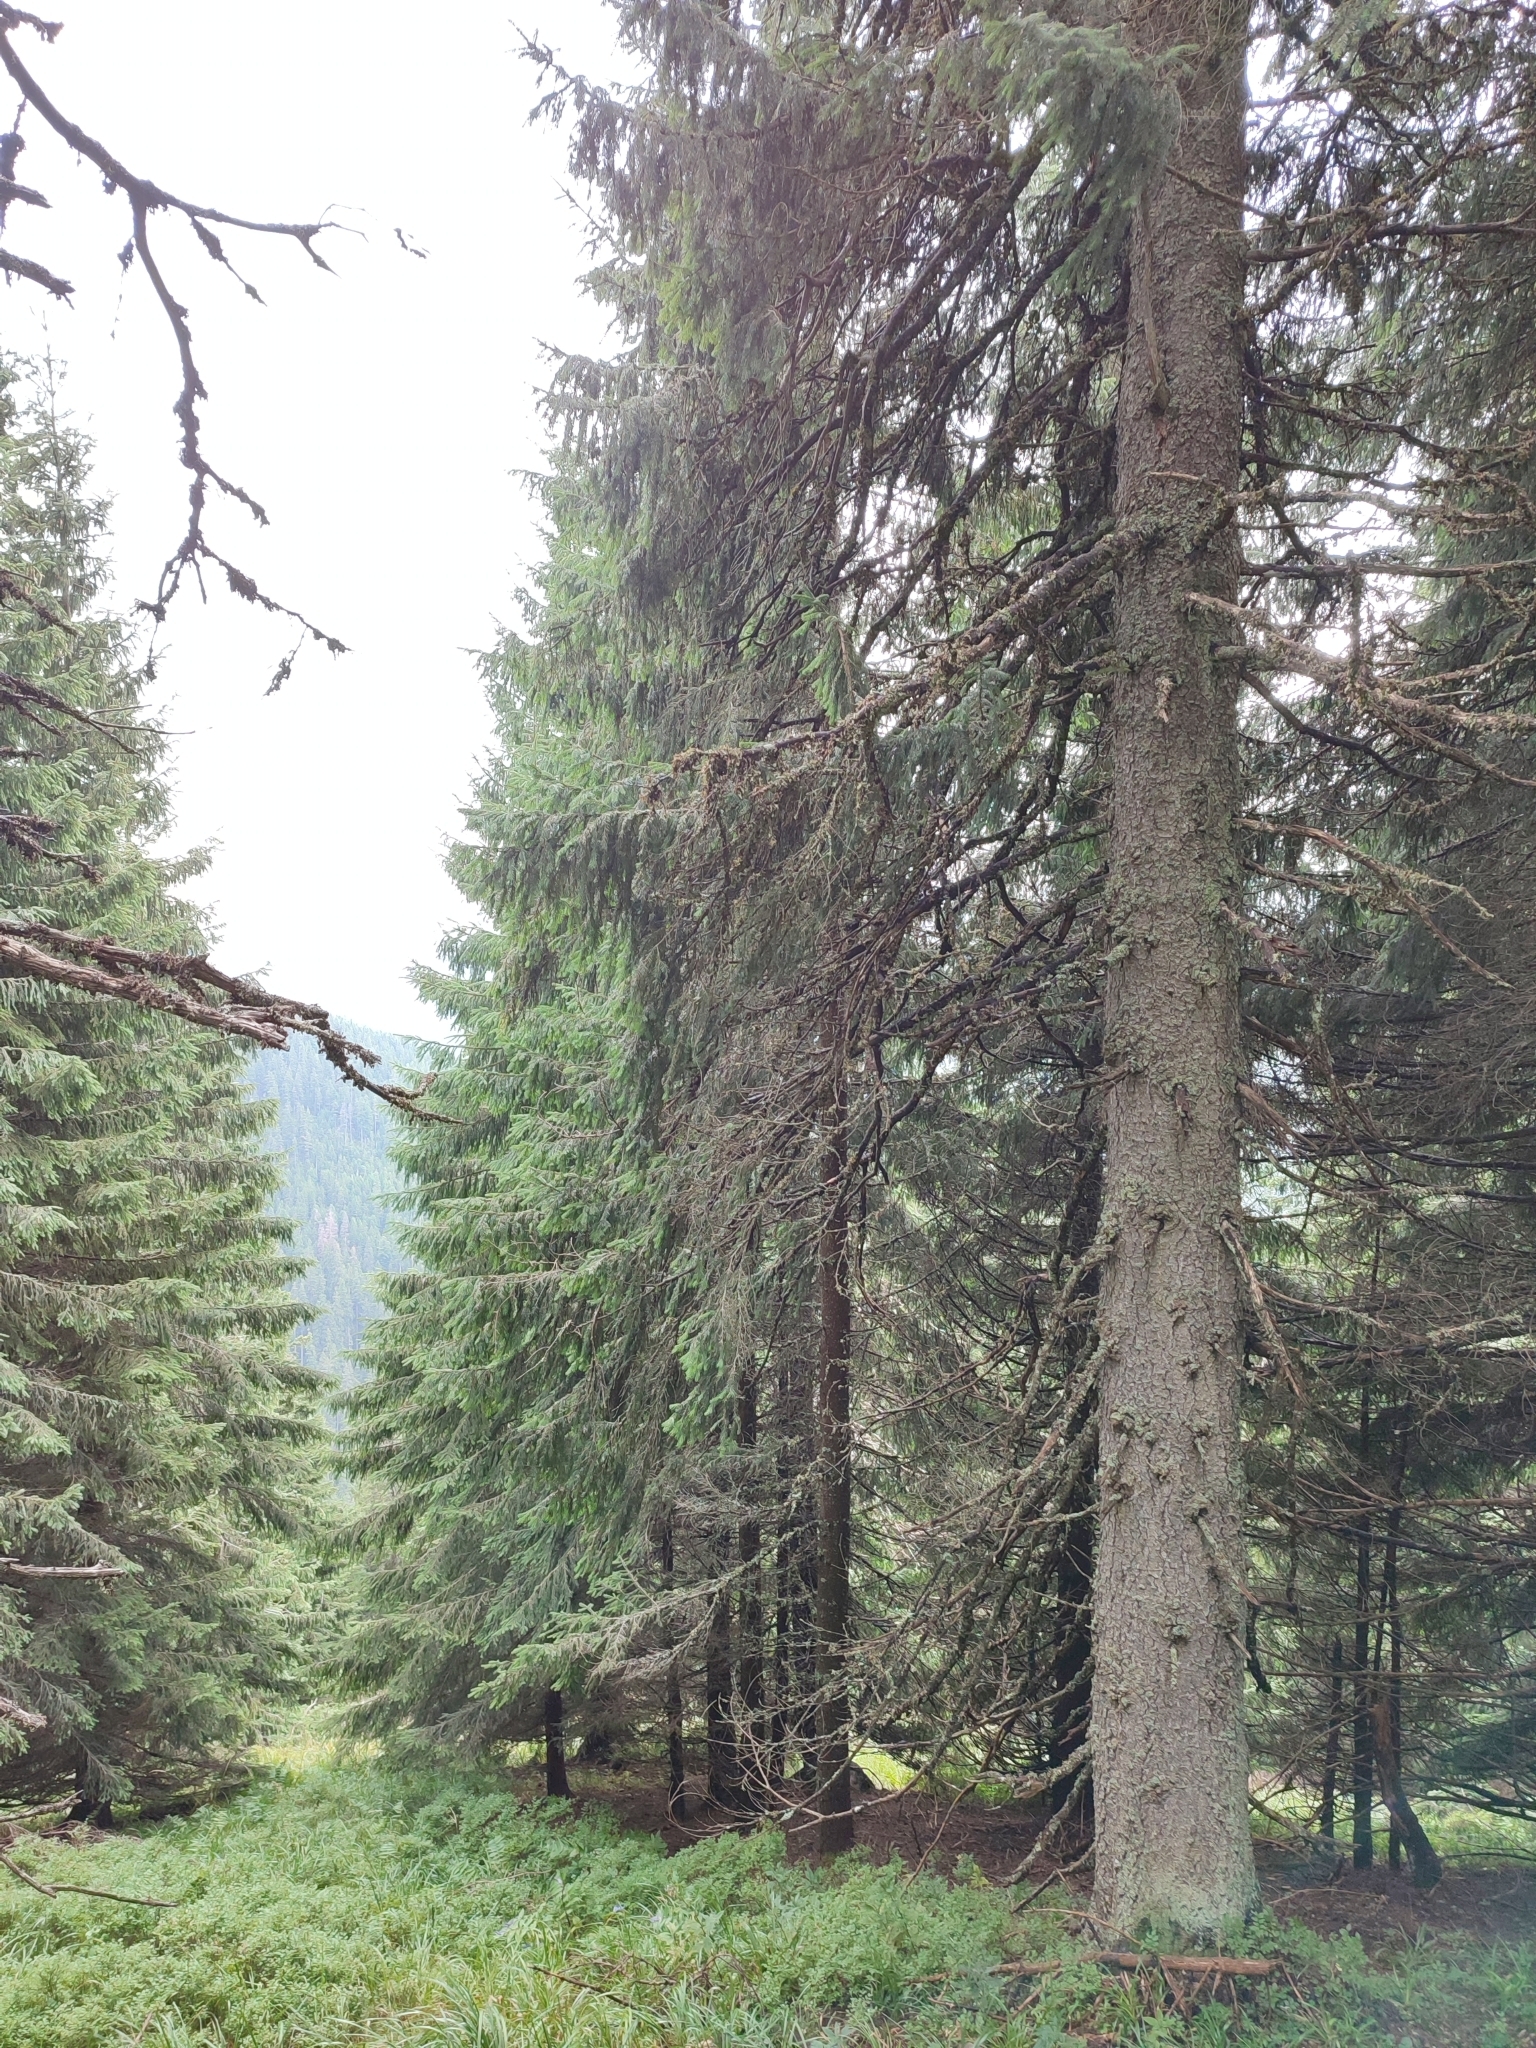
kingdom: Plantae
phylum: Tracheophyta
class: Pinopsida
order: Pinales
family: Pinaceae
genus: Picea
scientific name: Picea abies
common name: Norway spruce
